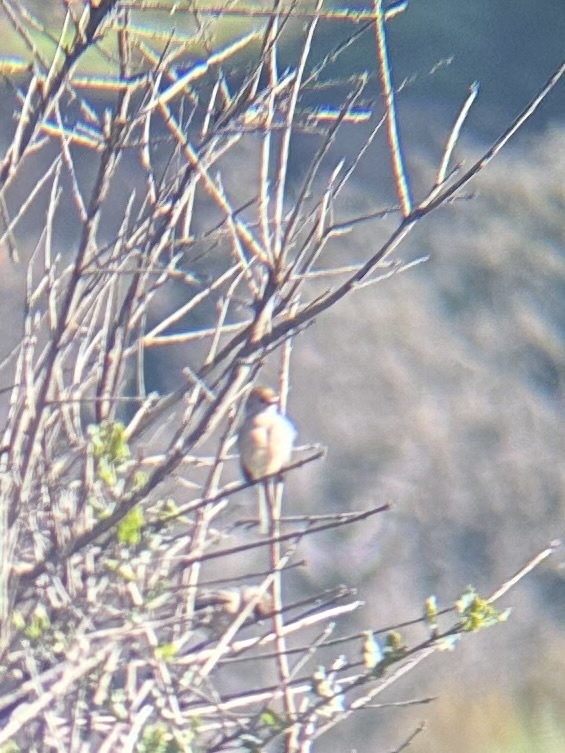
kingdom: Animalia
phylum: Chordata
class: Aves
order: Passeriformes
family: Aegithalidae
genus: Psaltriparus
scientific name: Psaltriparus minimus
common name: American bushtit
